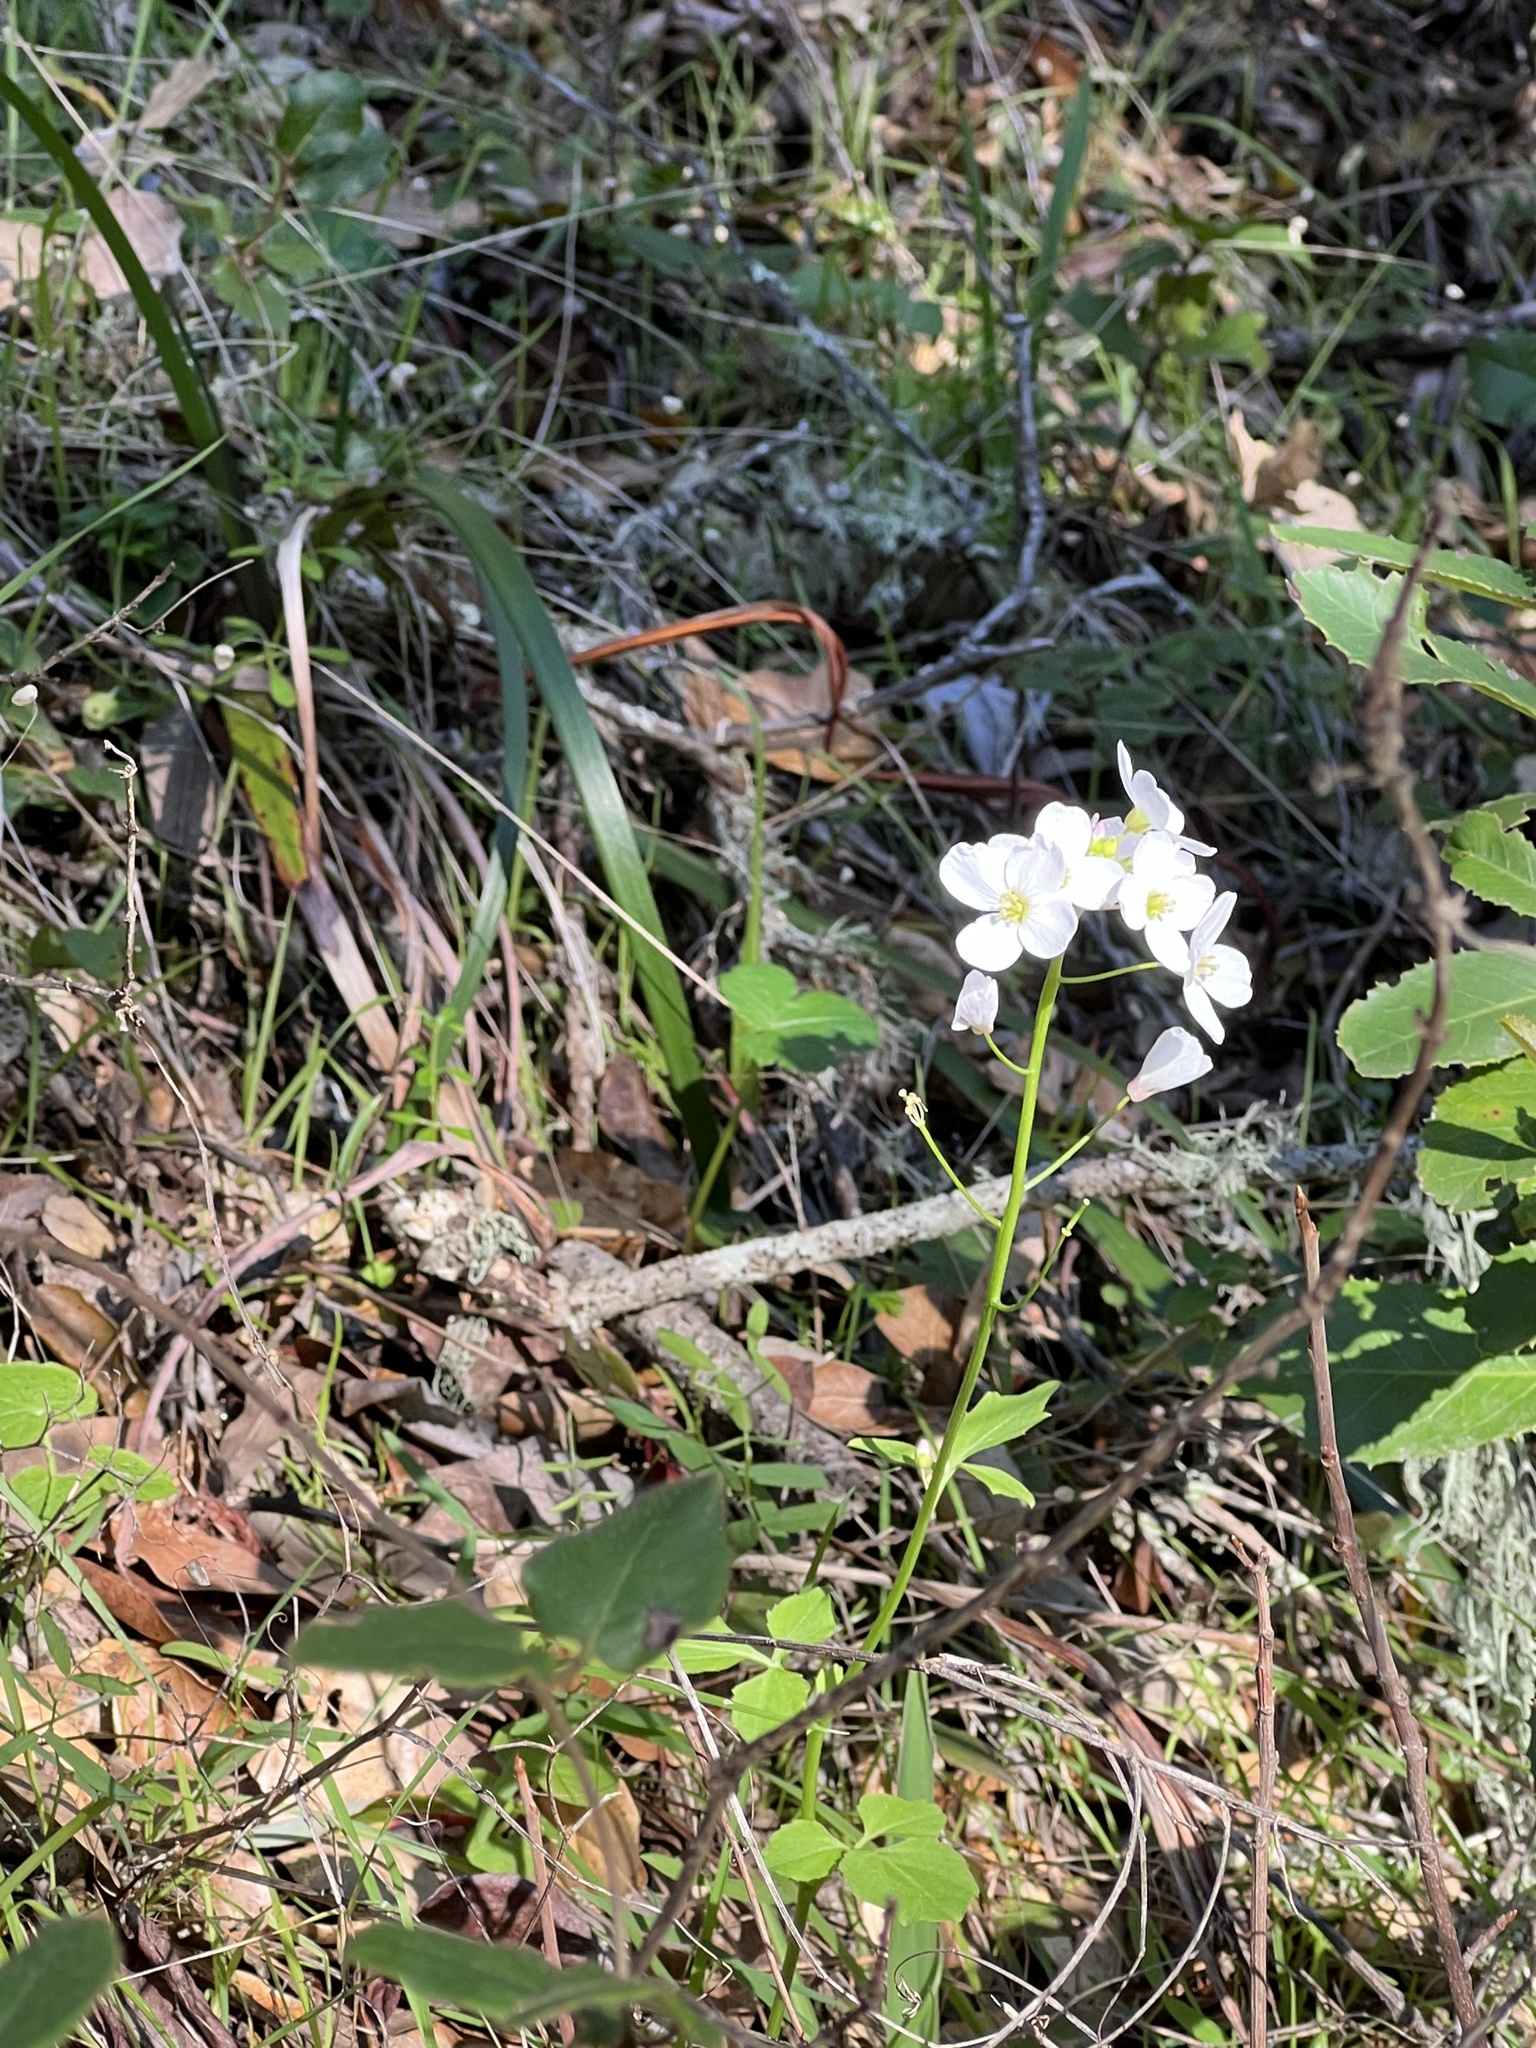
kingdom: Plantae
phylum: Tracheophyta
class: Magnoliopsida
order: Brassicales
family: Brassicaceae
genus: Cardamine
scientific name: Cardamine californica
